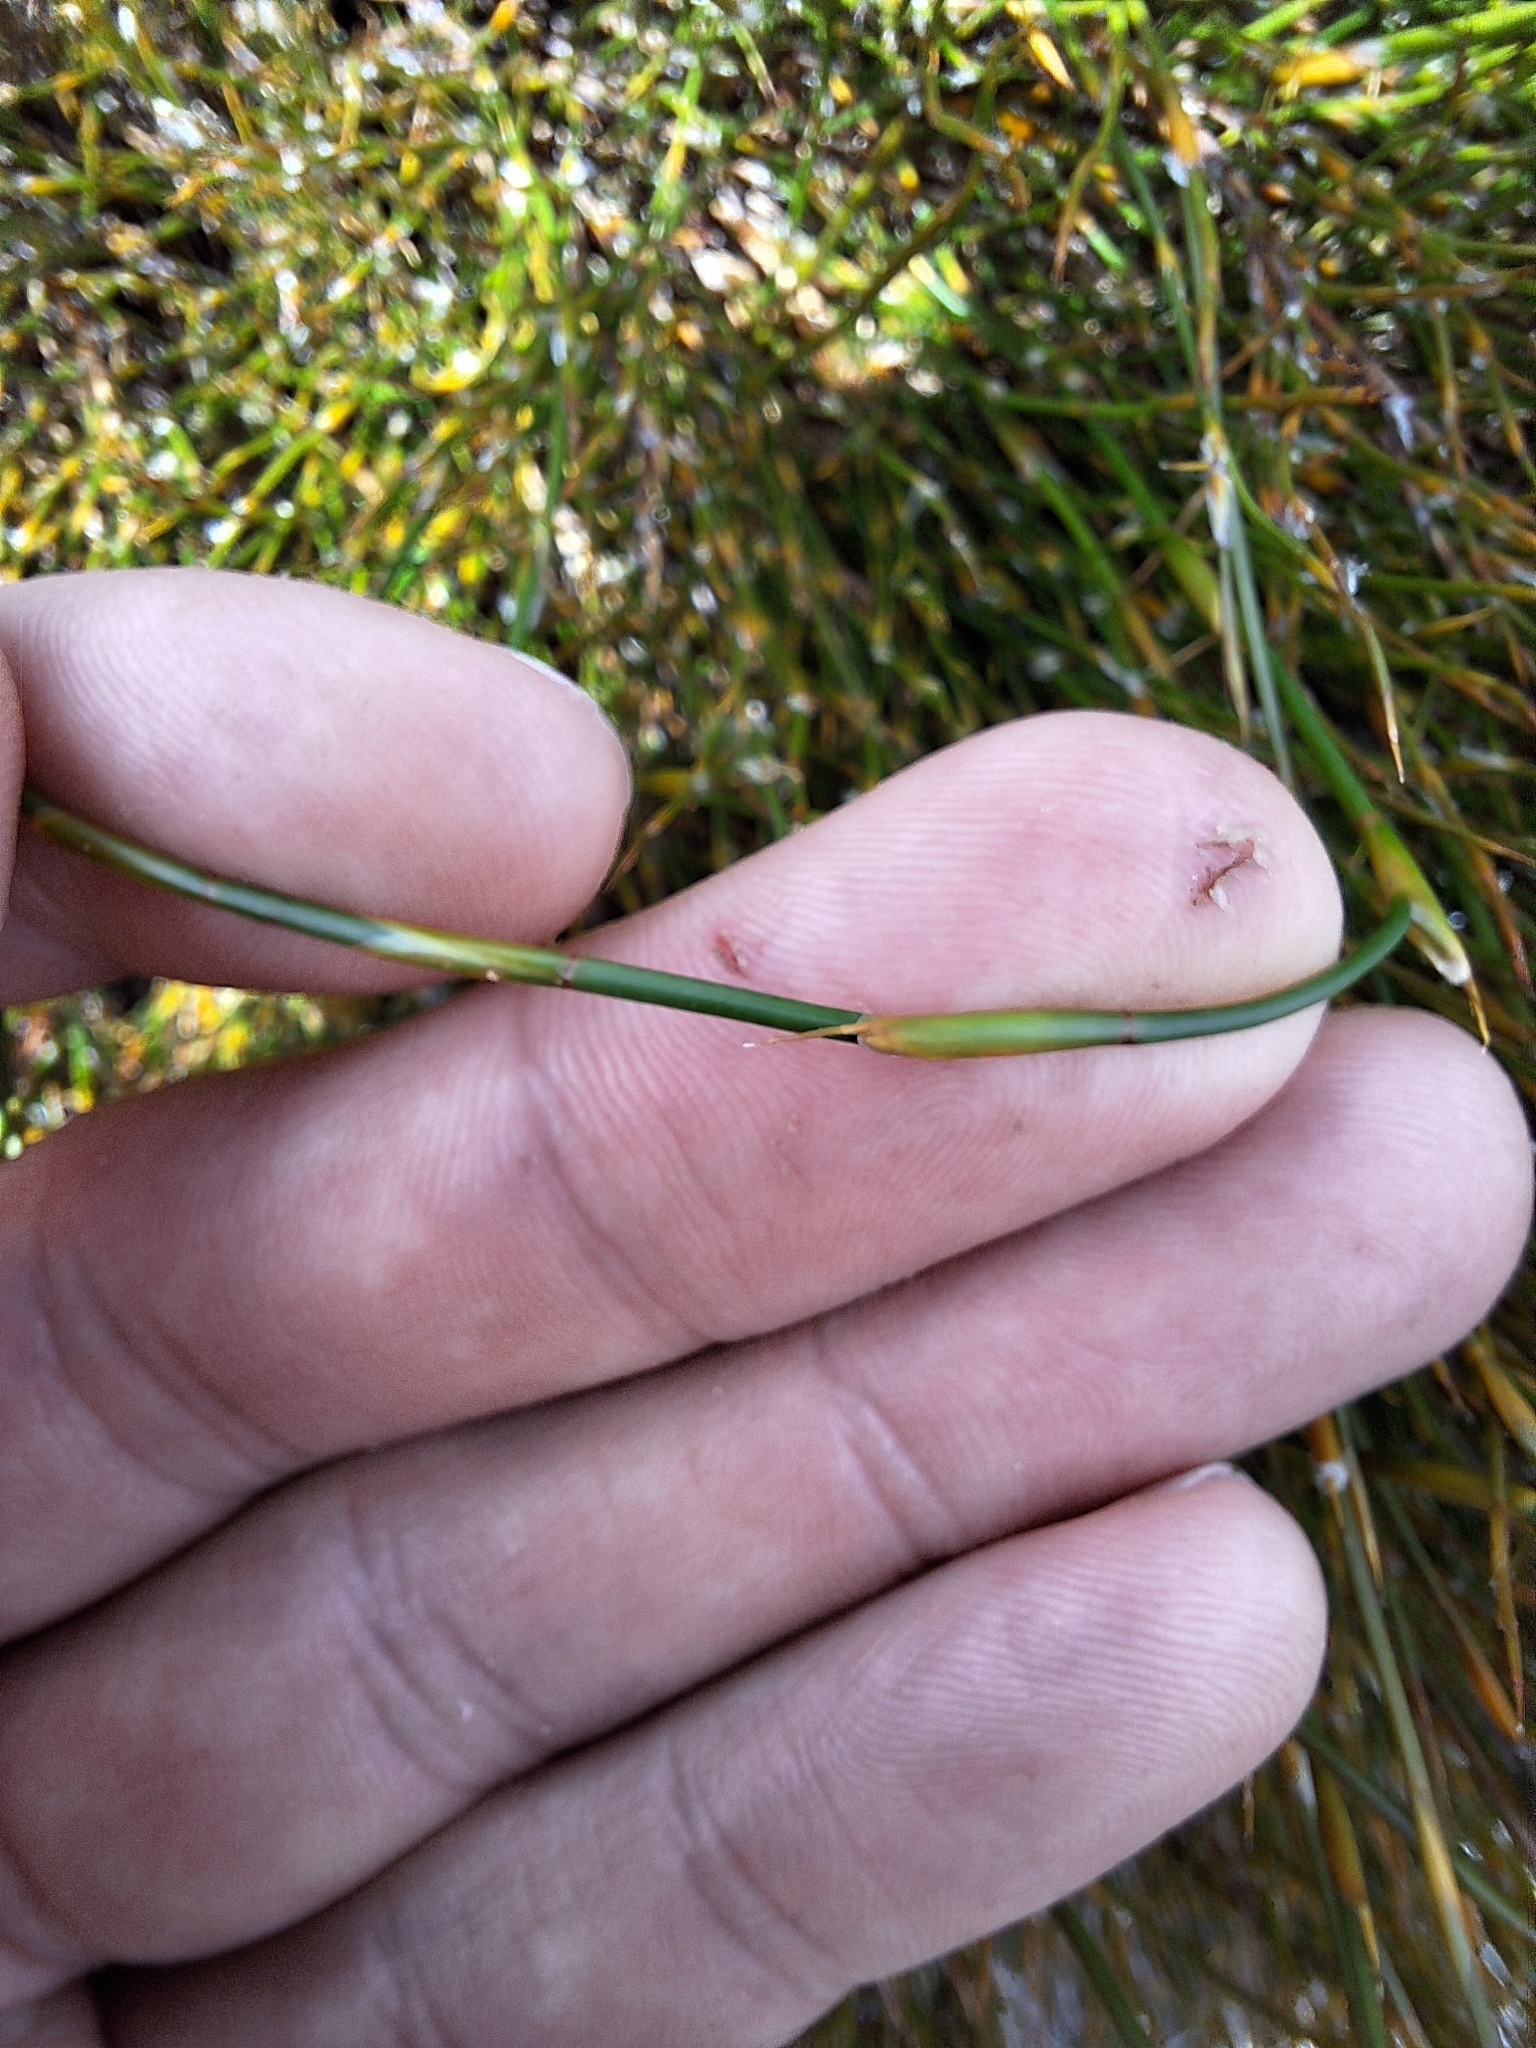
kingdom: Plantae
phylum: Tracheophyta
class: Liliopsida
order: Poales
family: Restionaceae
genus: Empodisma
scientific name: Empodisma minus
